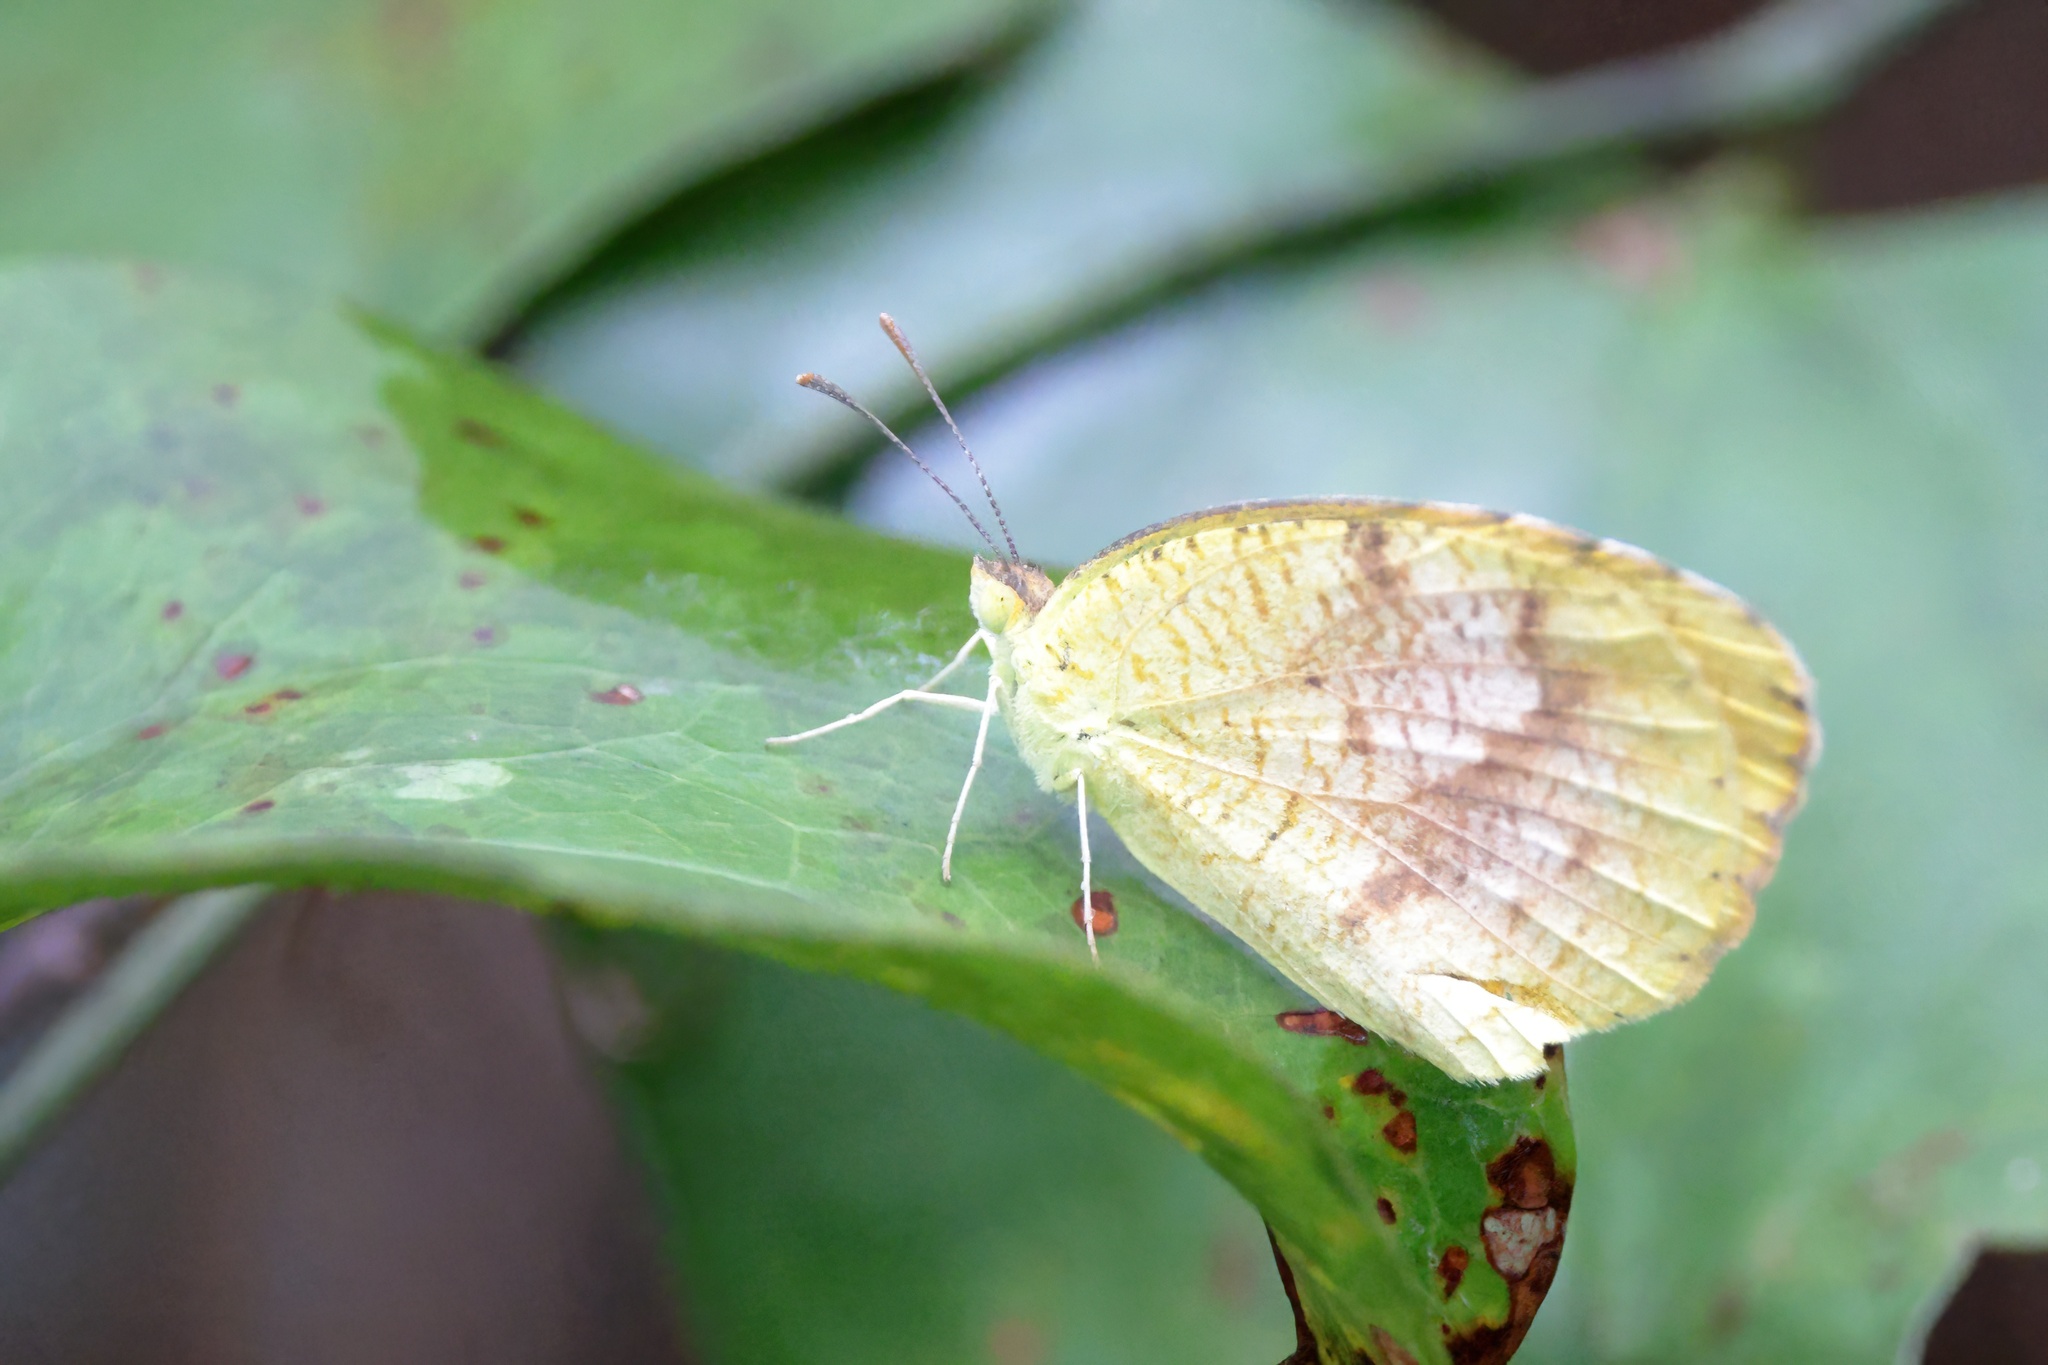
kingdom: Animalia
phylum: Arthropoda
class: Insecta
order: Lepidoptera
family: Pieridae
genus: Abaeis
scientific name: Abaeis nicippe
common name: Sleepy orange
